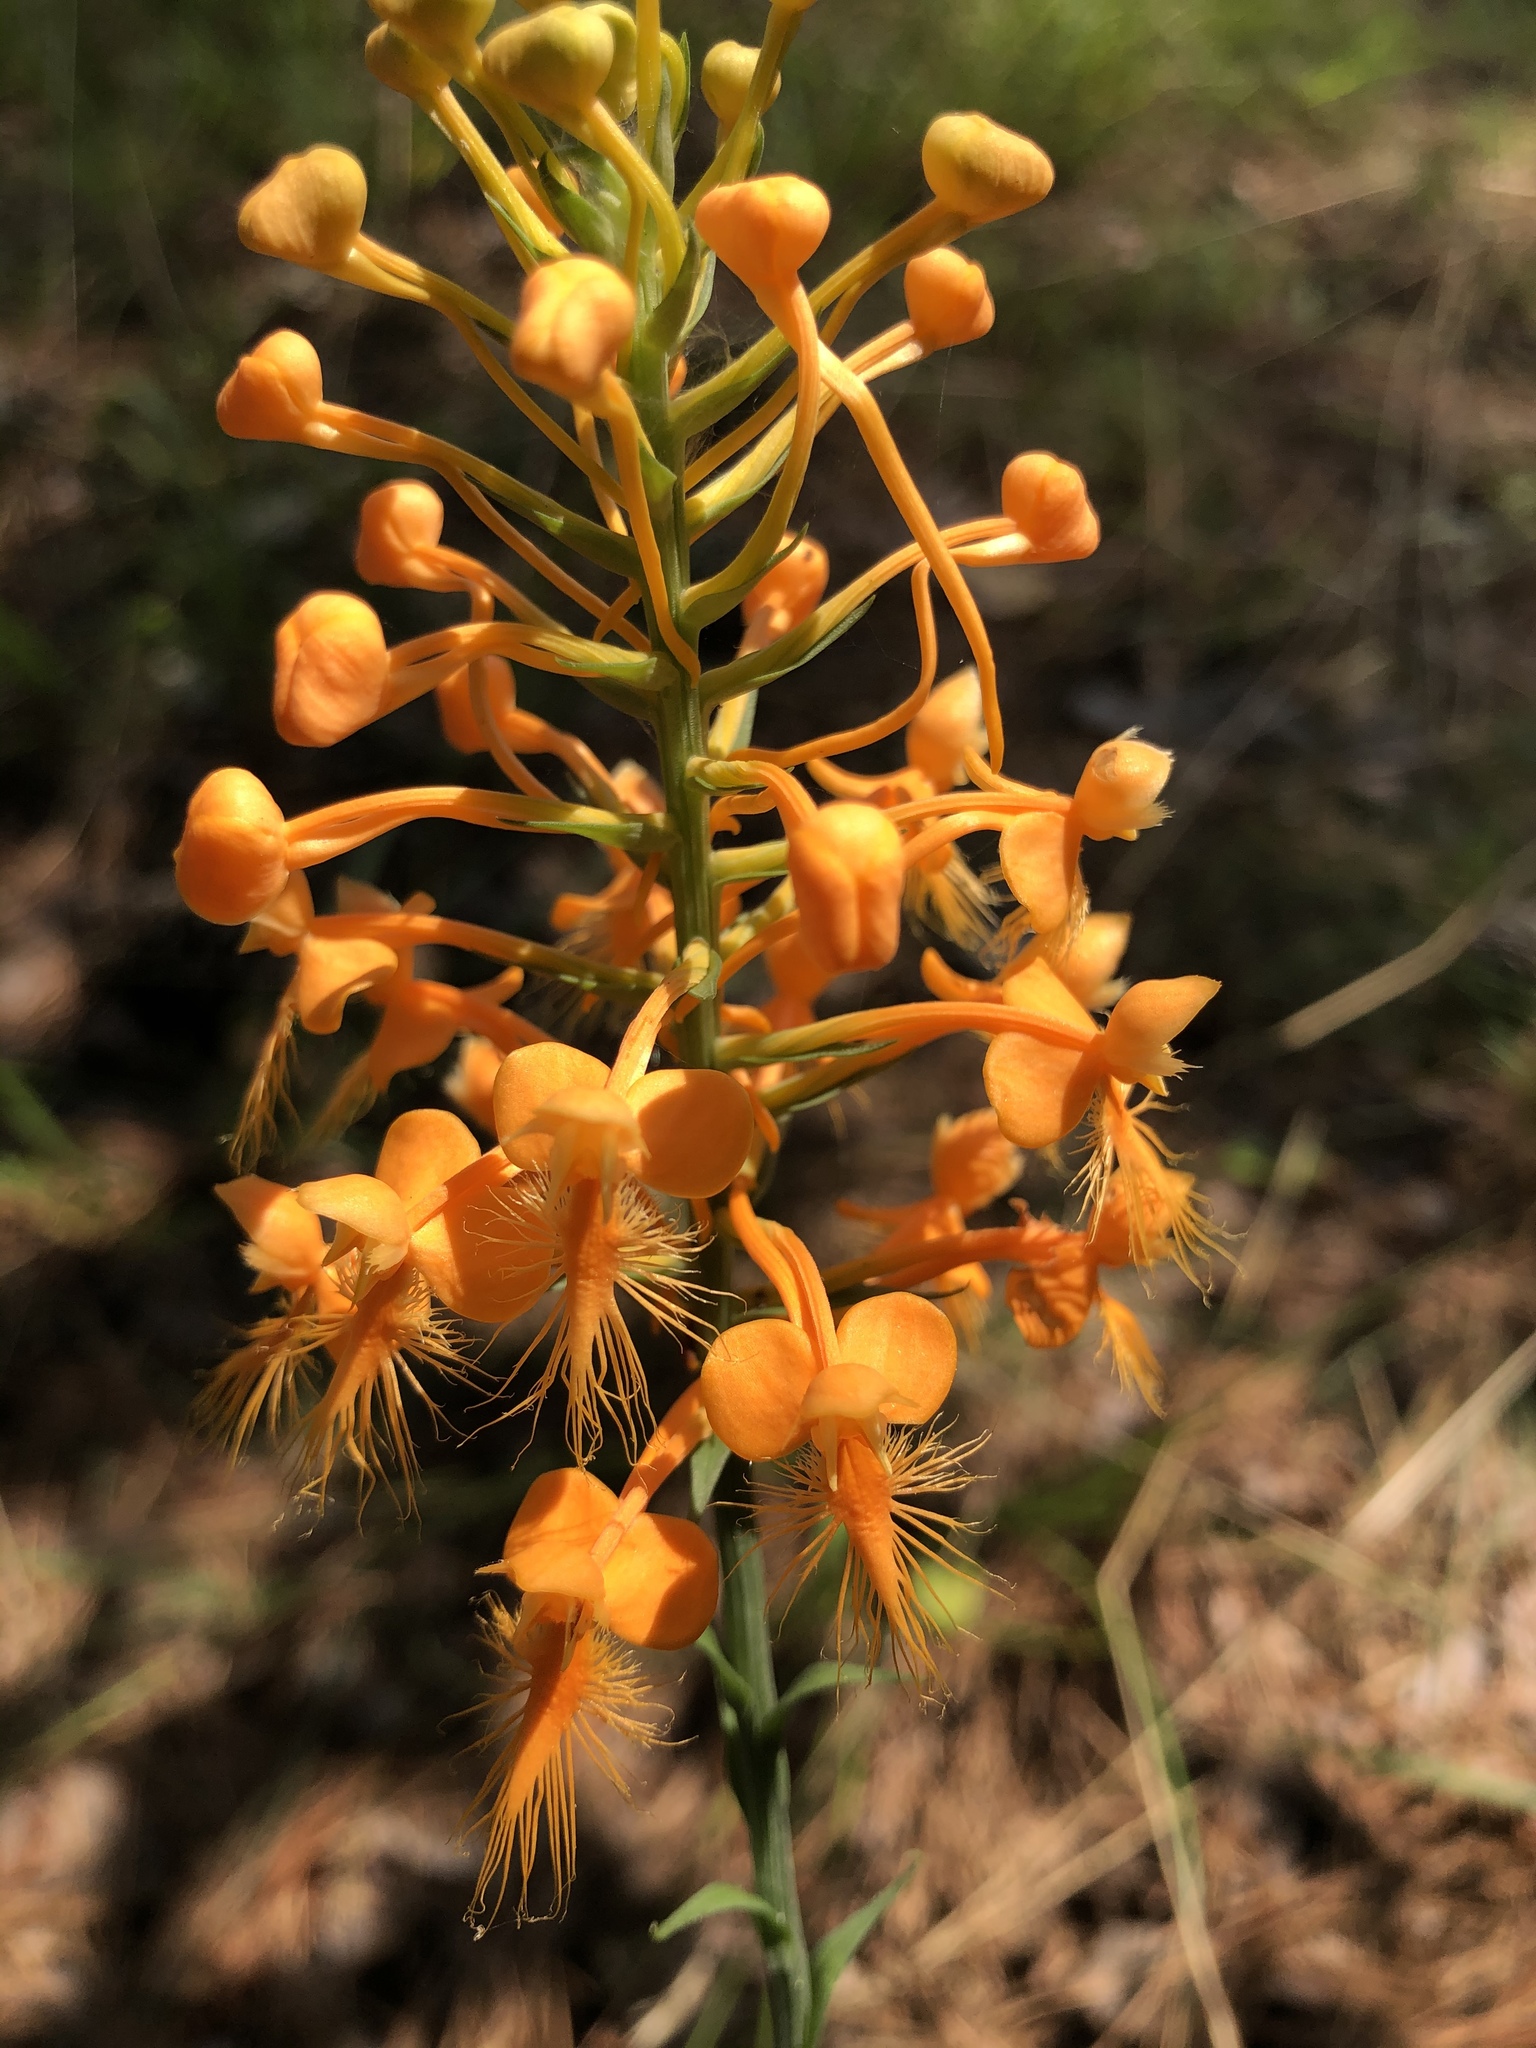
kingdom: Plantae
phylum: Tracheophyta
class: Liliopsida
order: Asparagales
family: Orchidaceae
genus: Platanthera
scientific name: Platanthera ciliaris
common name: Yellow fringed orchid
